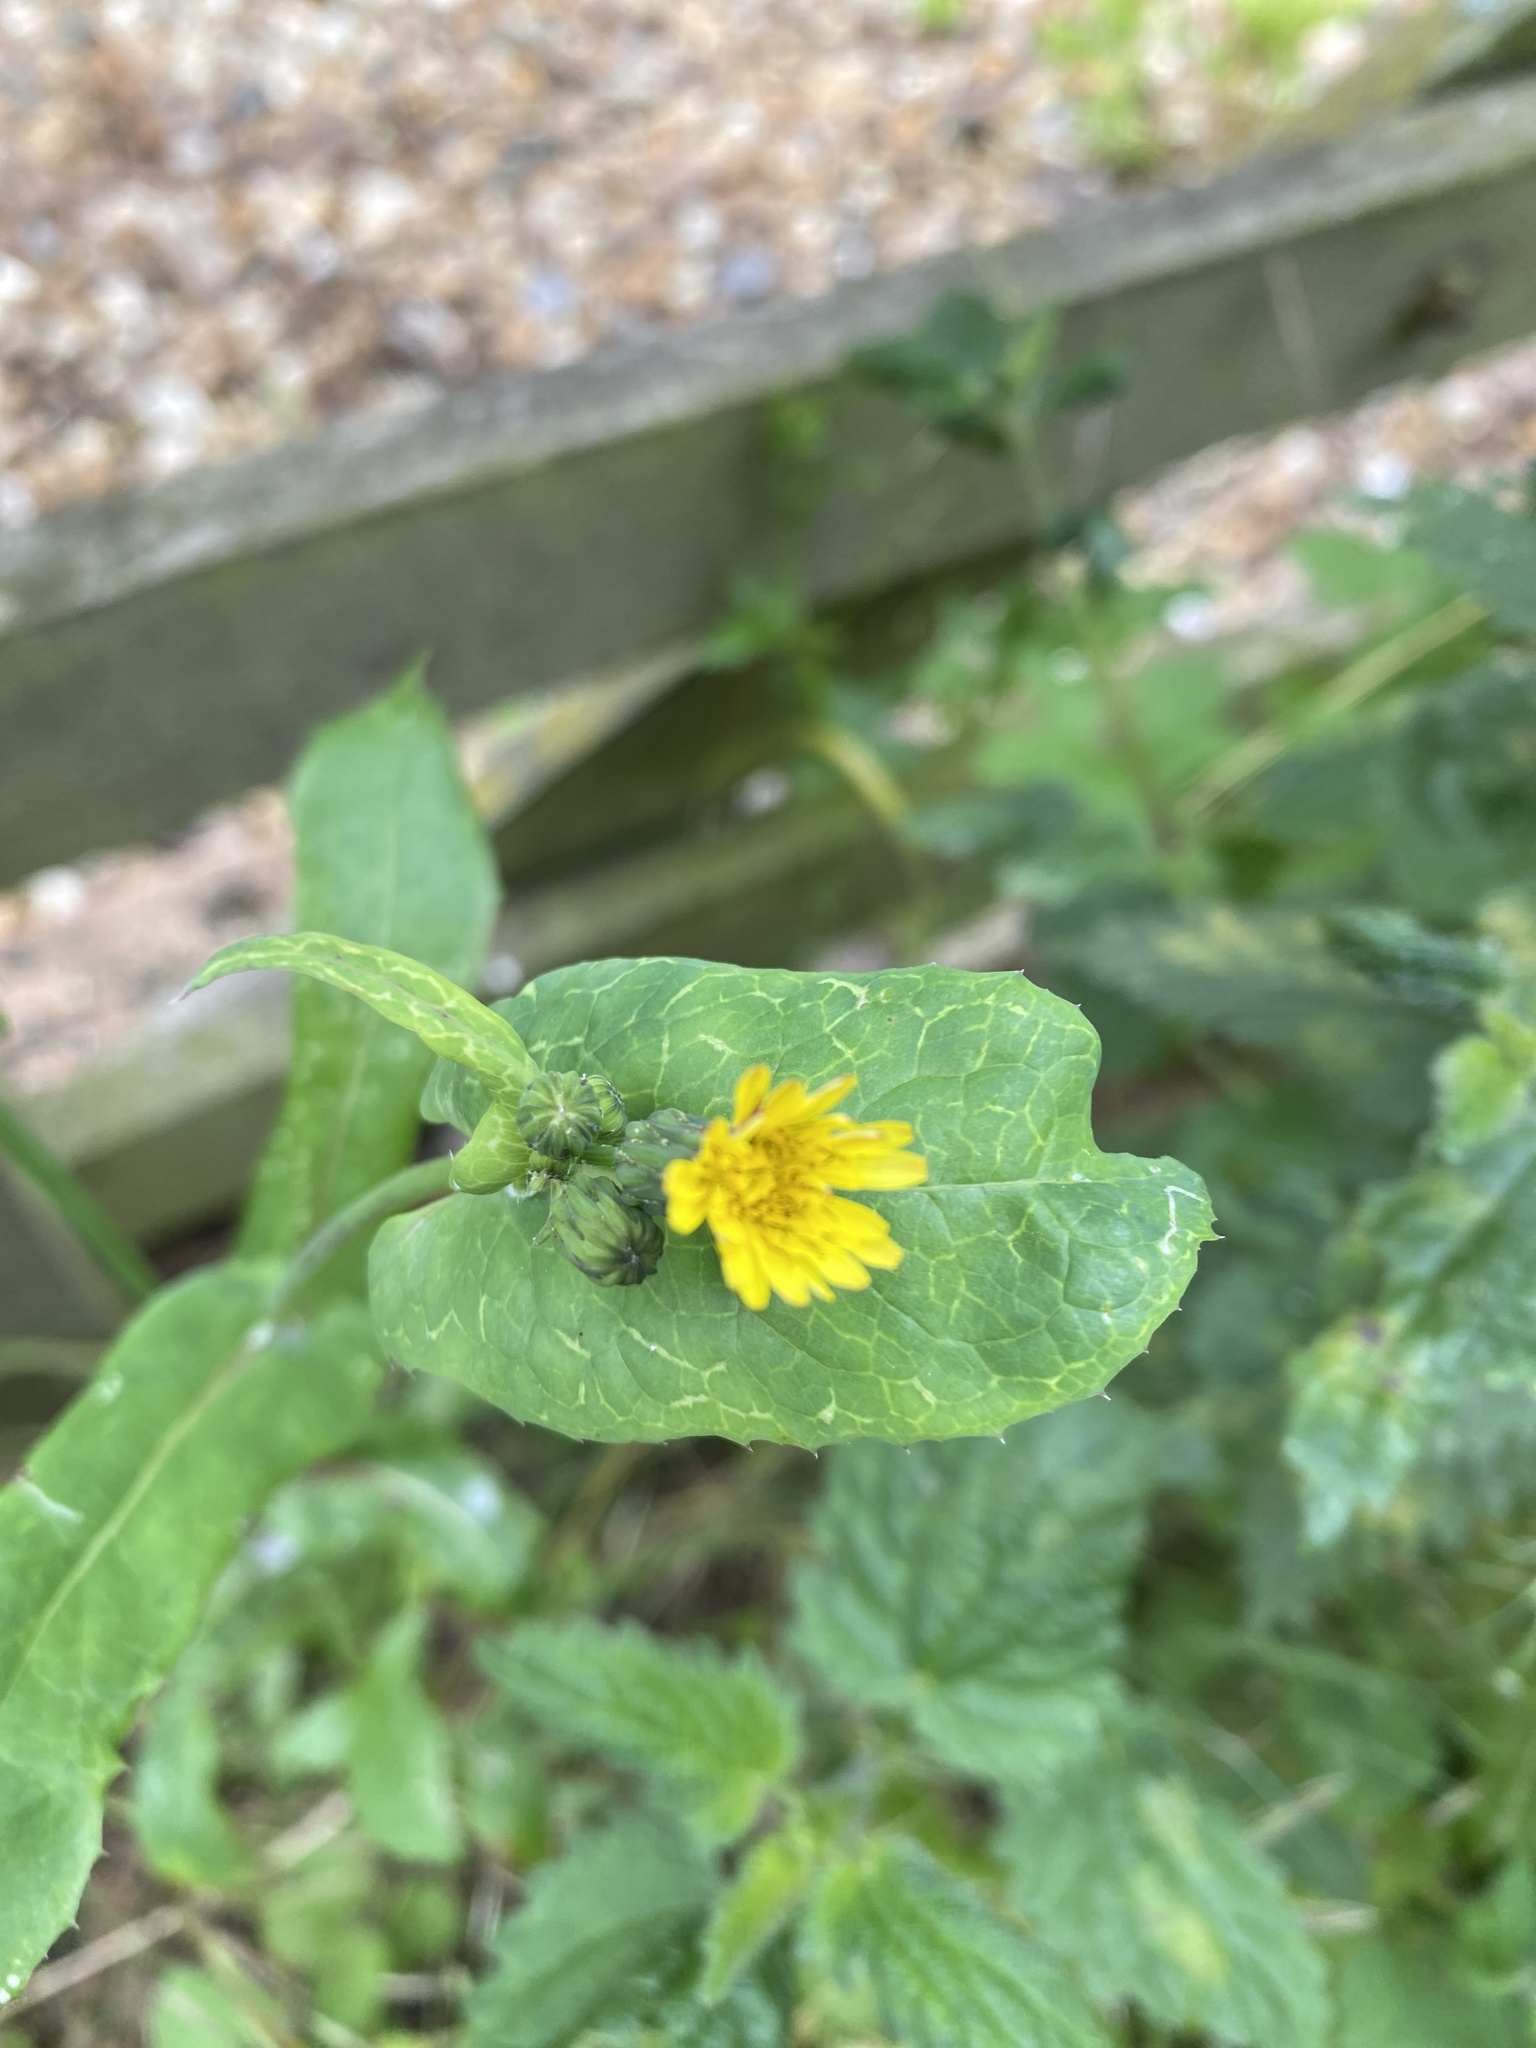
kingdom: Plantae
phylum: Tracheophyta
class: Magnoliopsida
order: Asterales
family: Asteraceae
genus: Sonchus
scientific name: Sonchus oleraceus
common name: Common sowthistle
